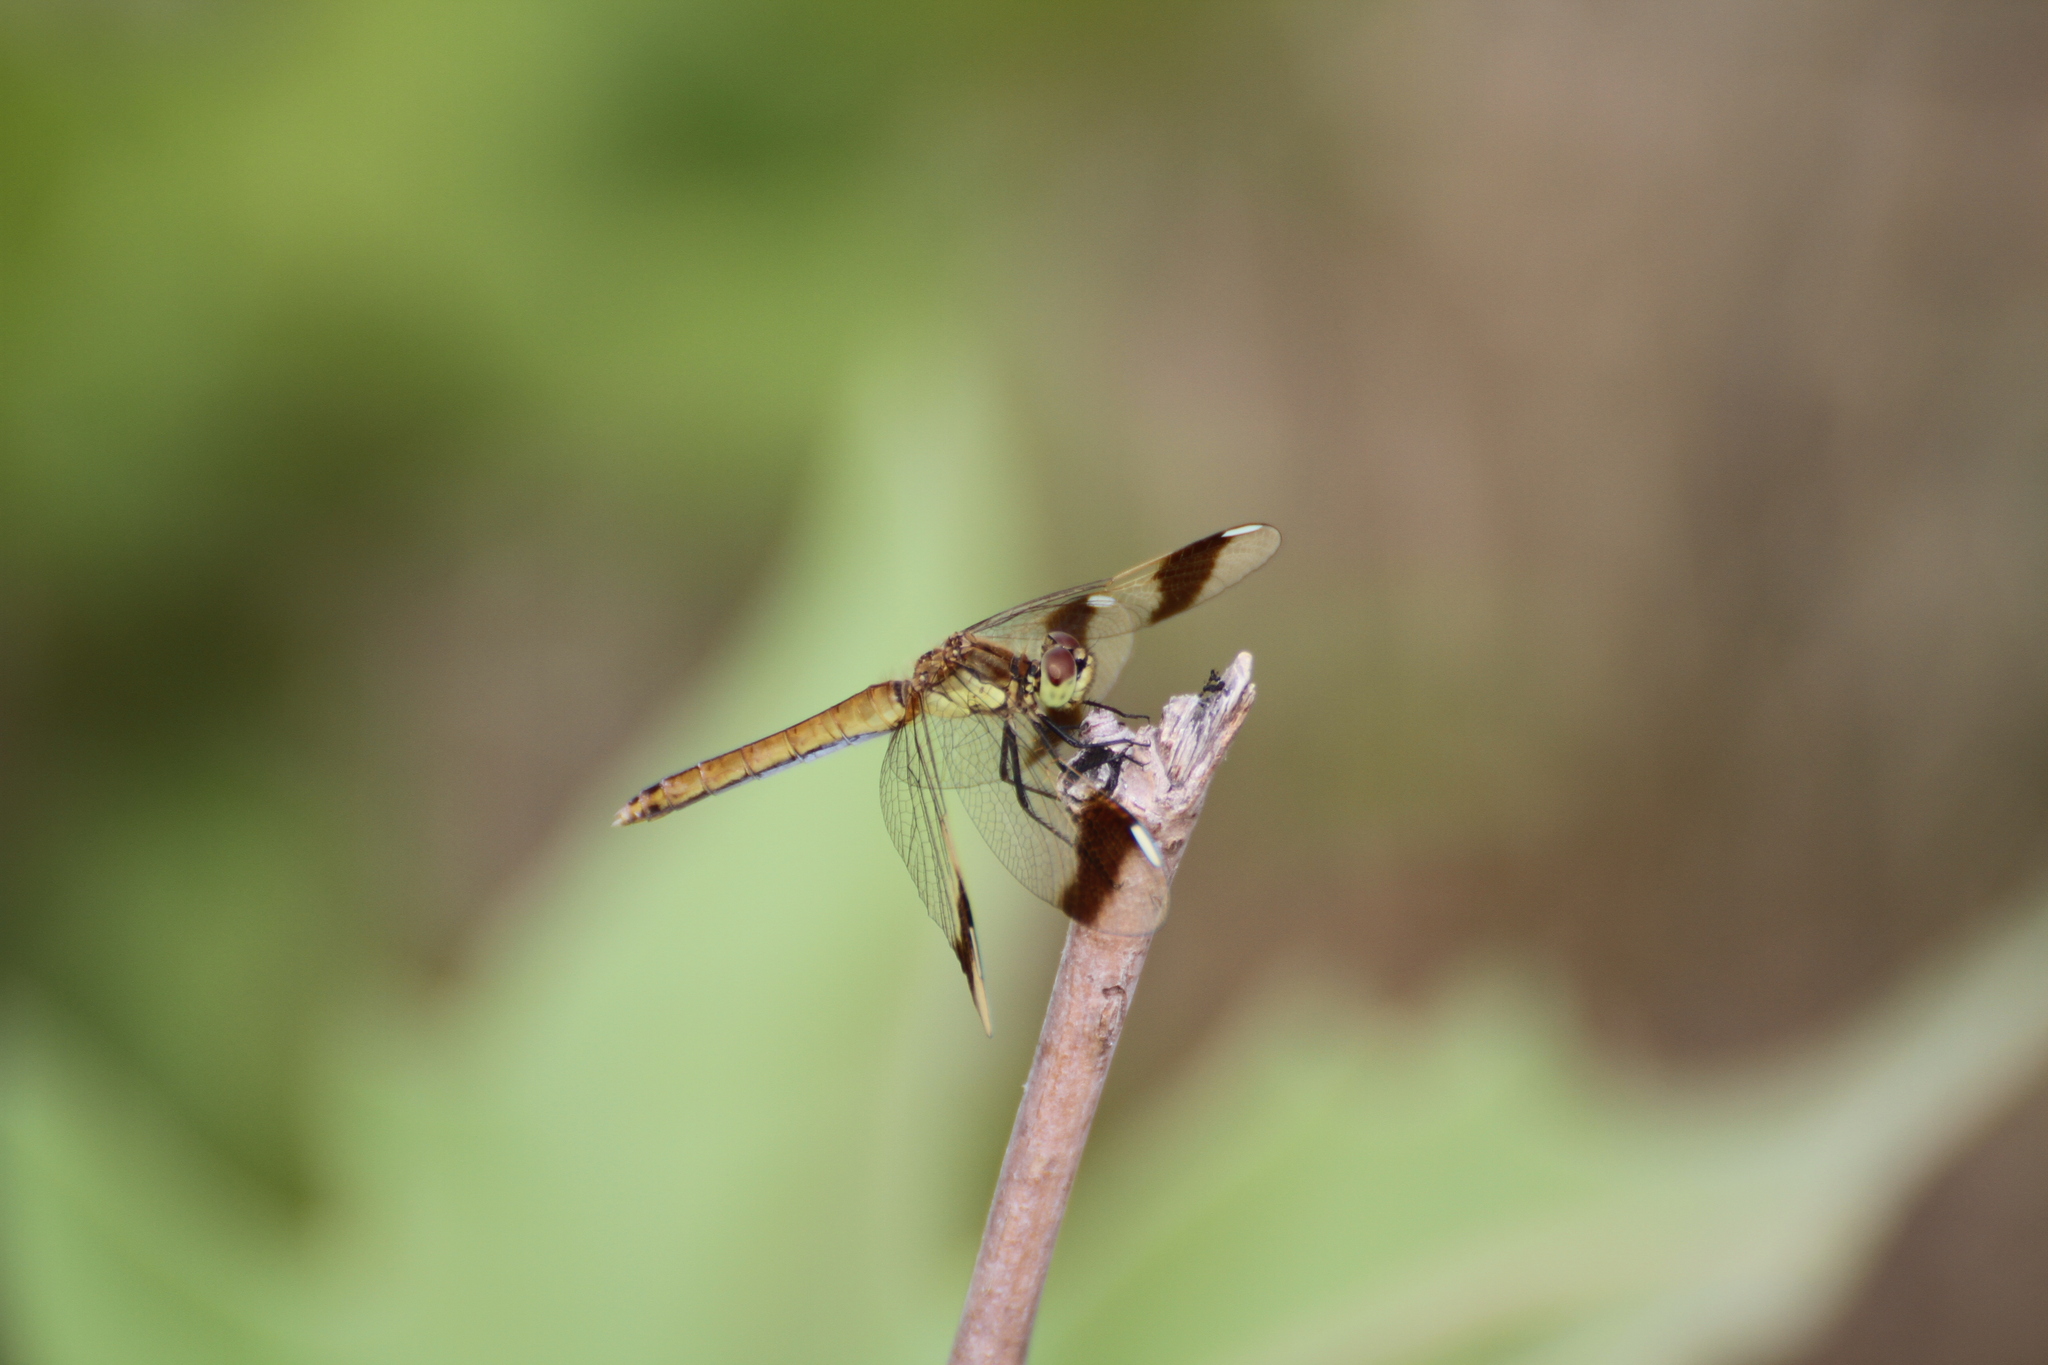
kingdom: Animalia
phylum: Arthropoda
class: Insecta
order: Odonata
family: Libellulidae
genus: Sympetrum
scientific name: Sympetrum pedemontanum
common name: Banded darter
